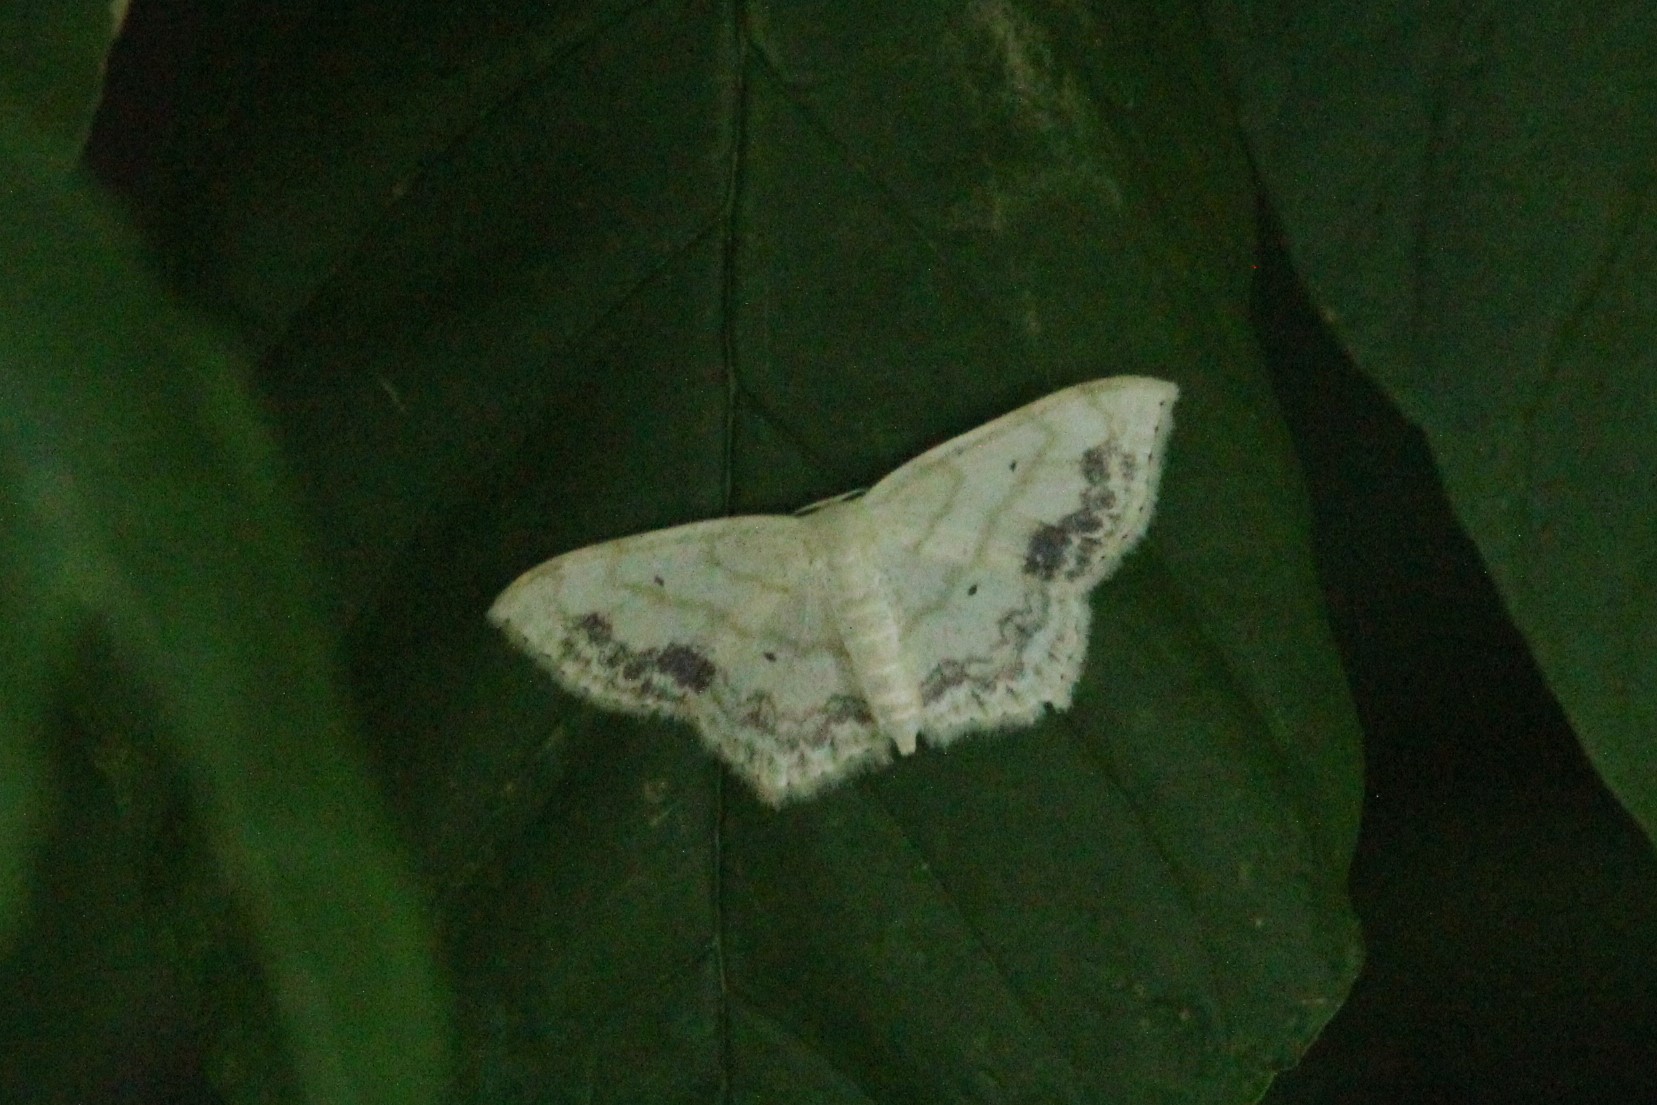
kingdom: Animalia
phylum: Arthropoda
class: Insecta
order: Lepidoptera
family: Geometridae
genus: Scopula
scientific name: Scopula limboundata
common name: Large lace border
